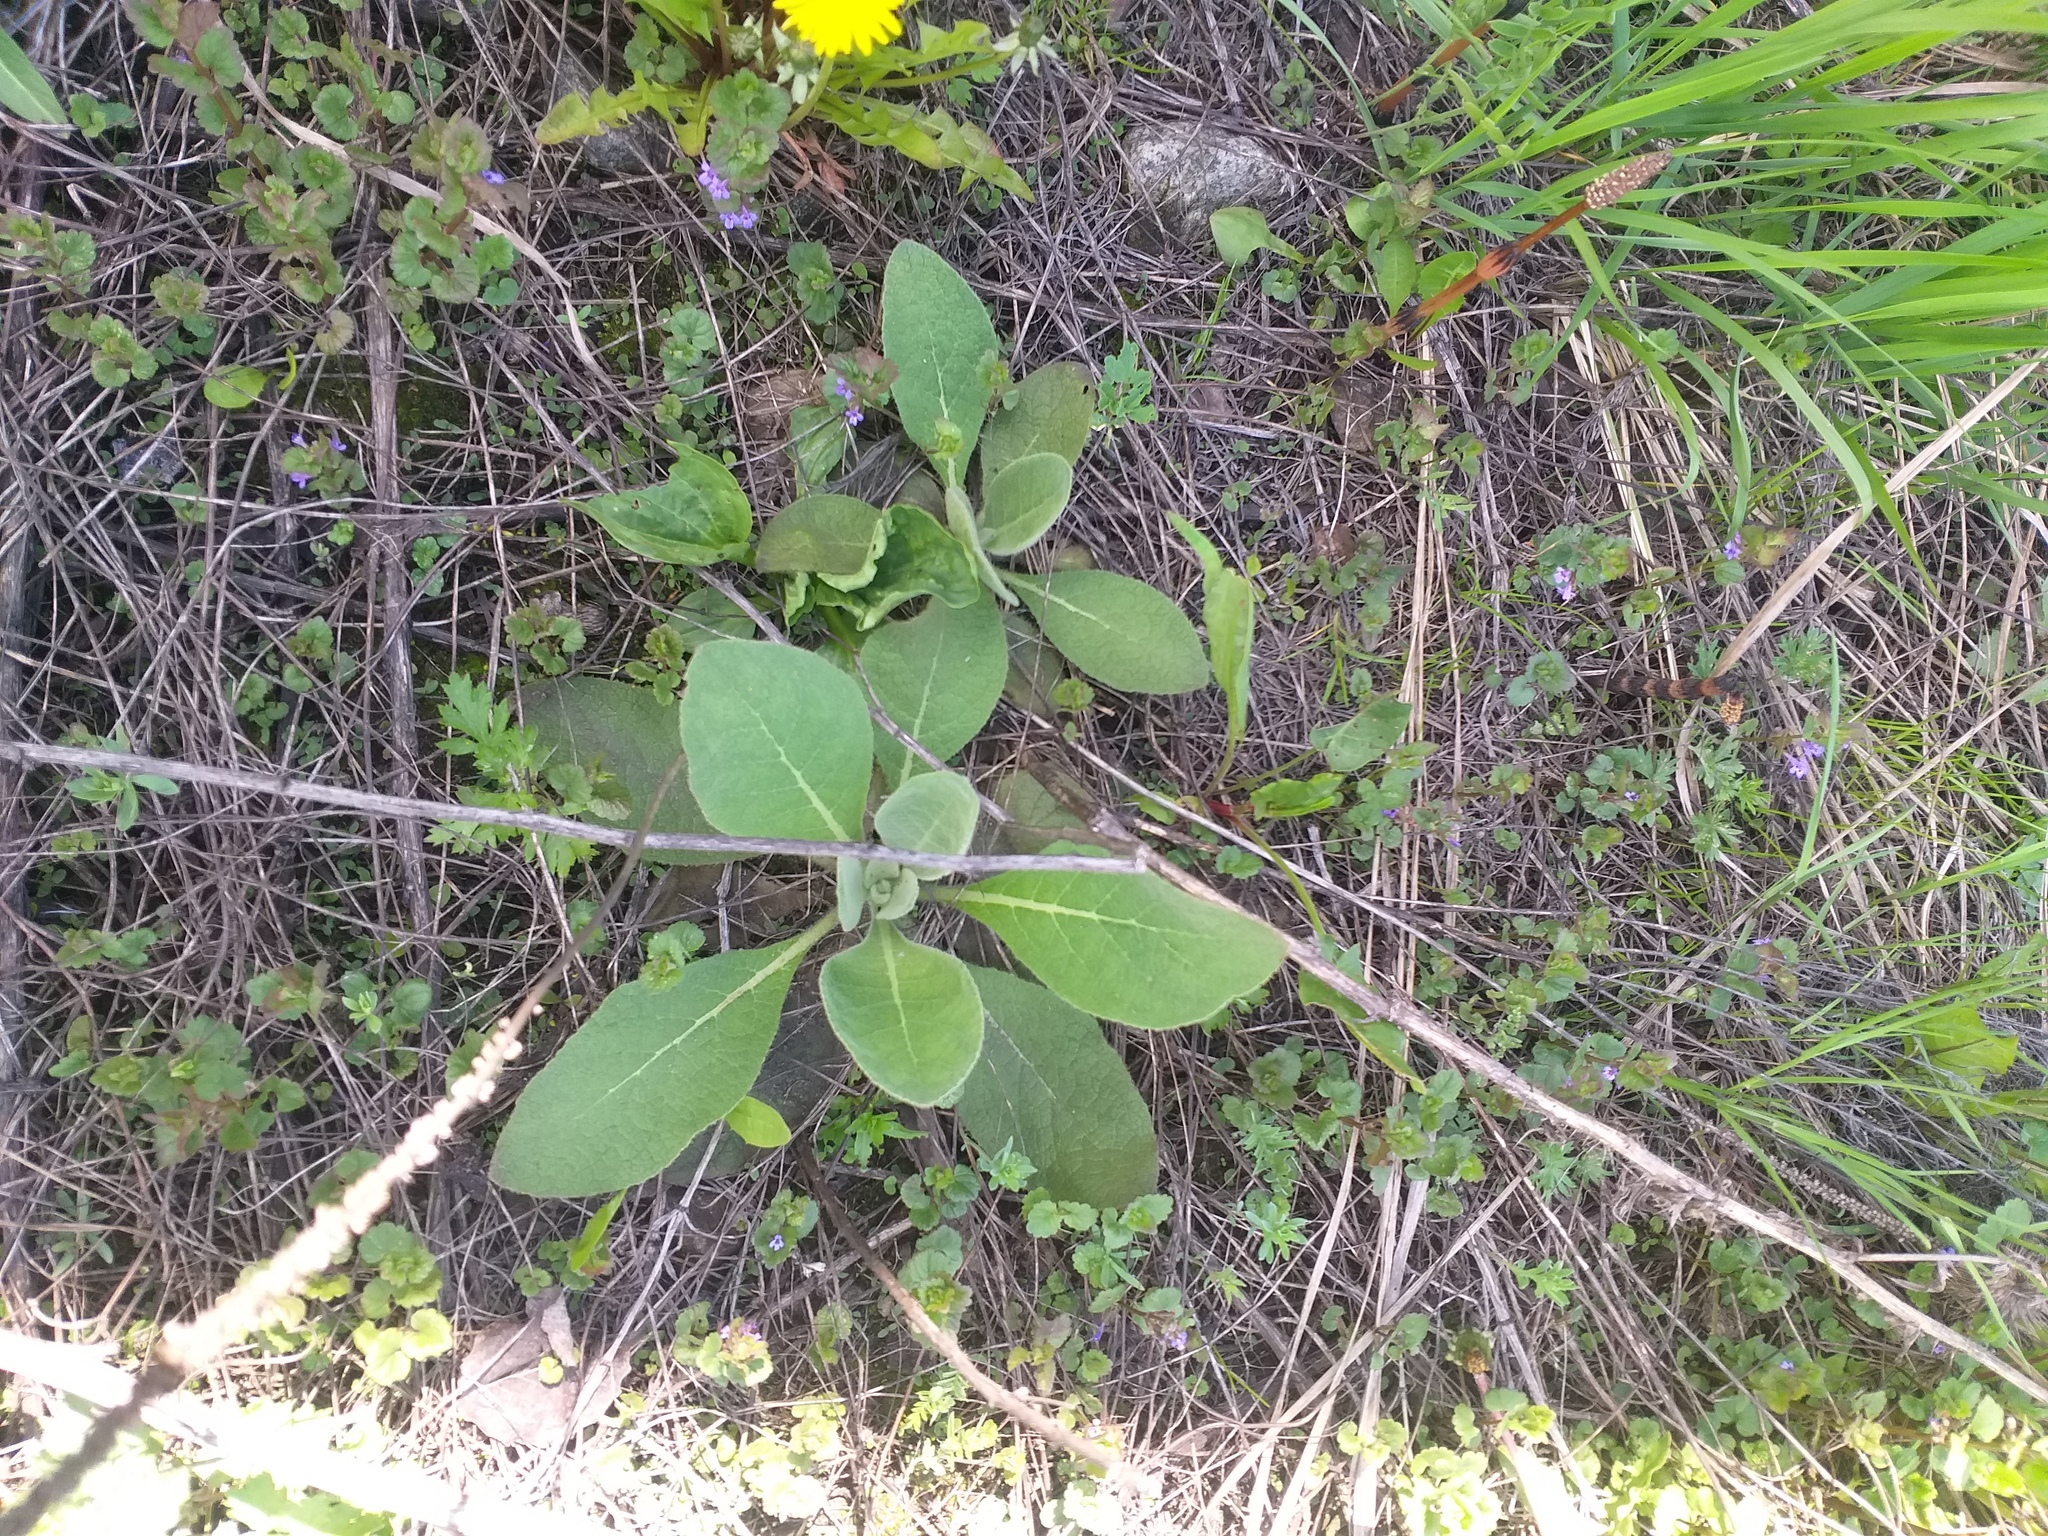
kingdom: Plantae
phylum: Tracheophyta
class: Magnoliopsida
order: Lamiales
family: Scrophulariaceae
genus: Verbascum
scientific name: Verbascum thapsus
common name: Common mullein
